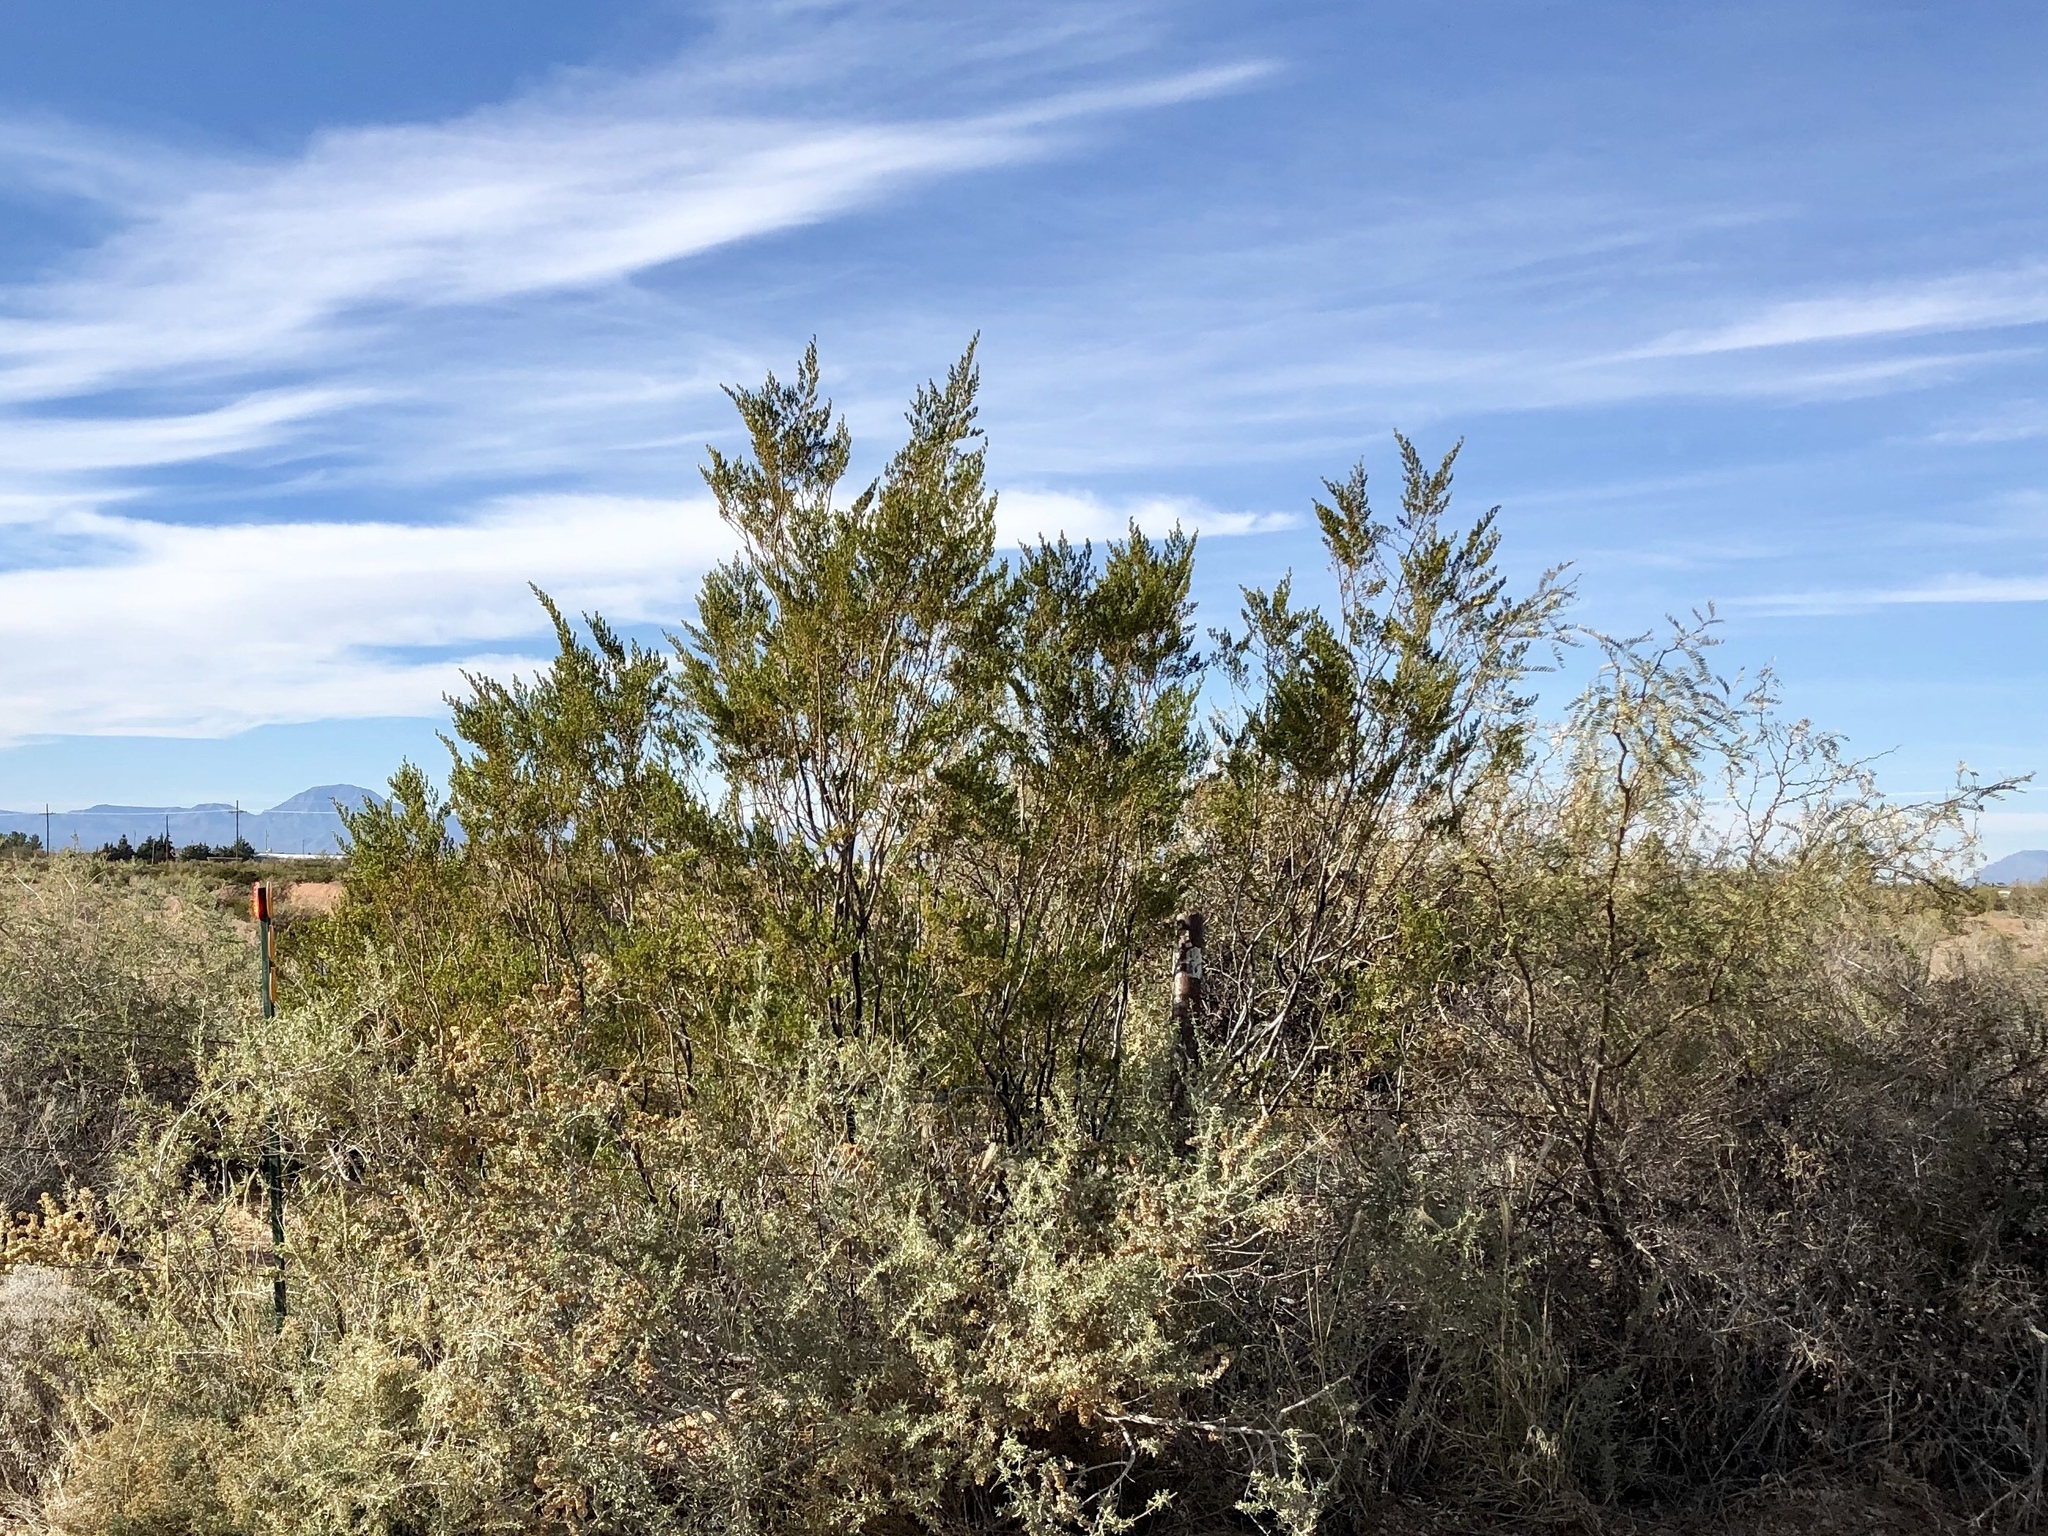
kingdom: Plantae
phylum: Tracheophyta
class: Magnoliopsida
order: Zygophyllales
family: Zygophyllaceae
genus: Larrea
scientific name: Larrea tridentata
